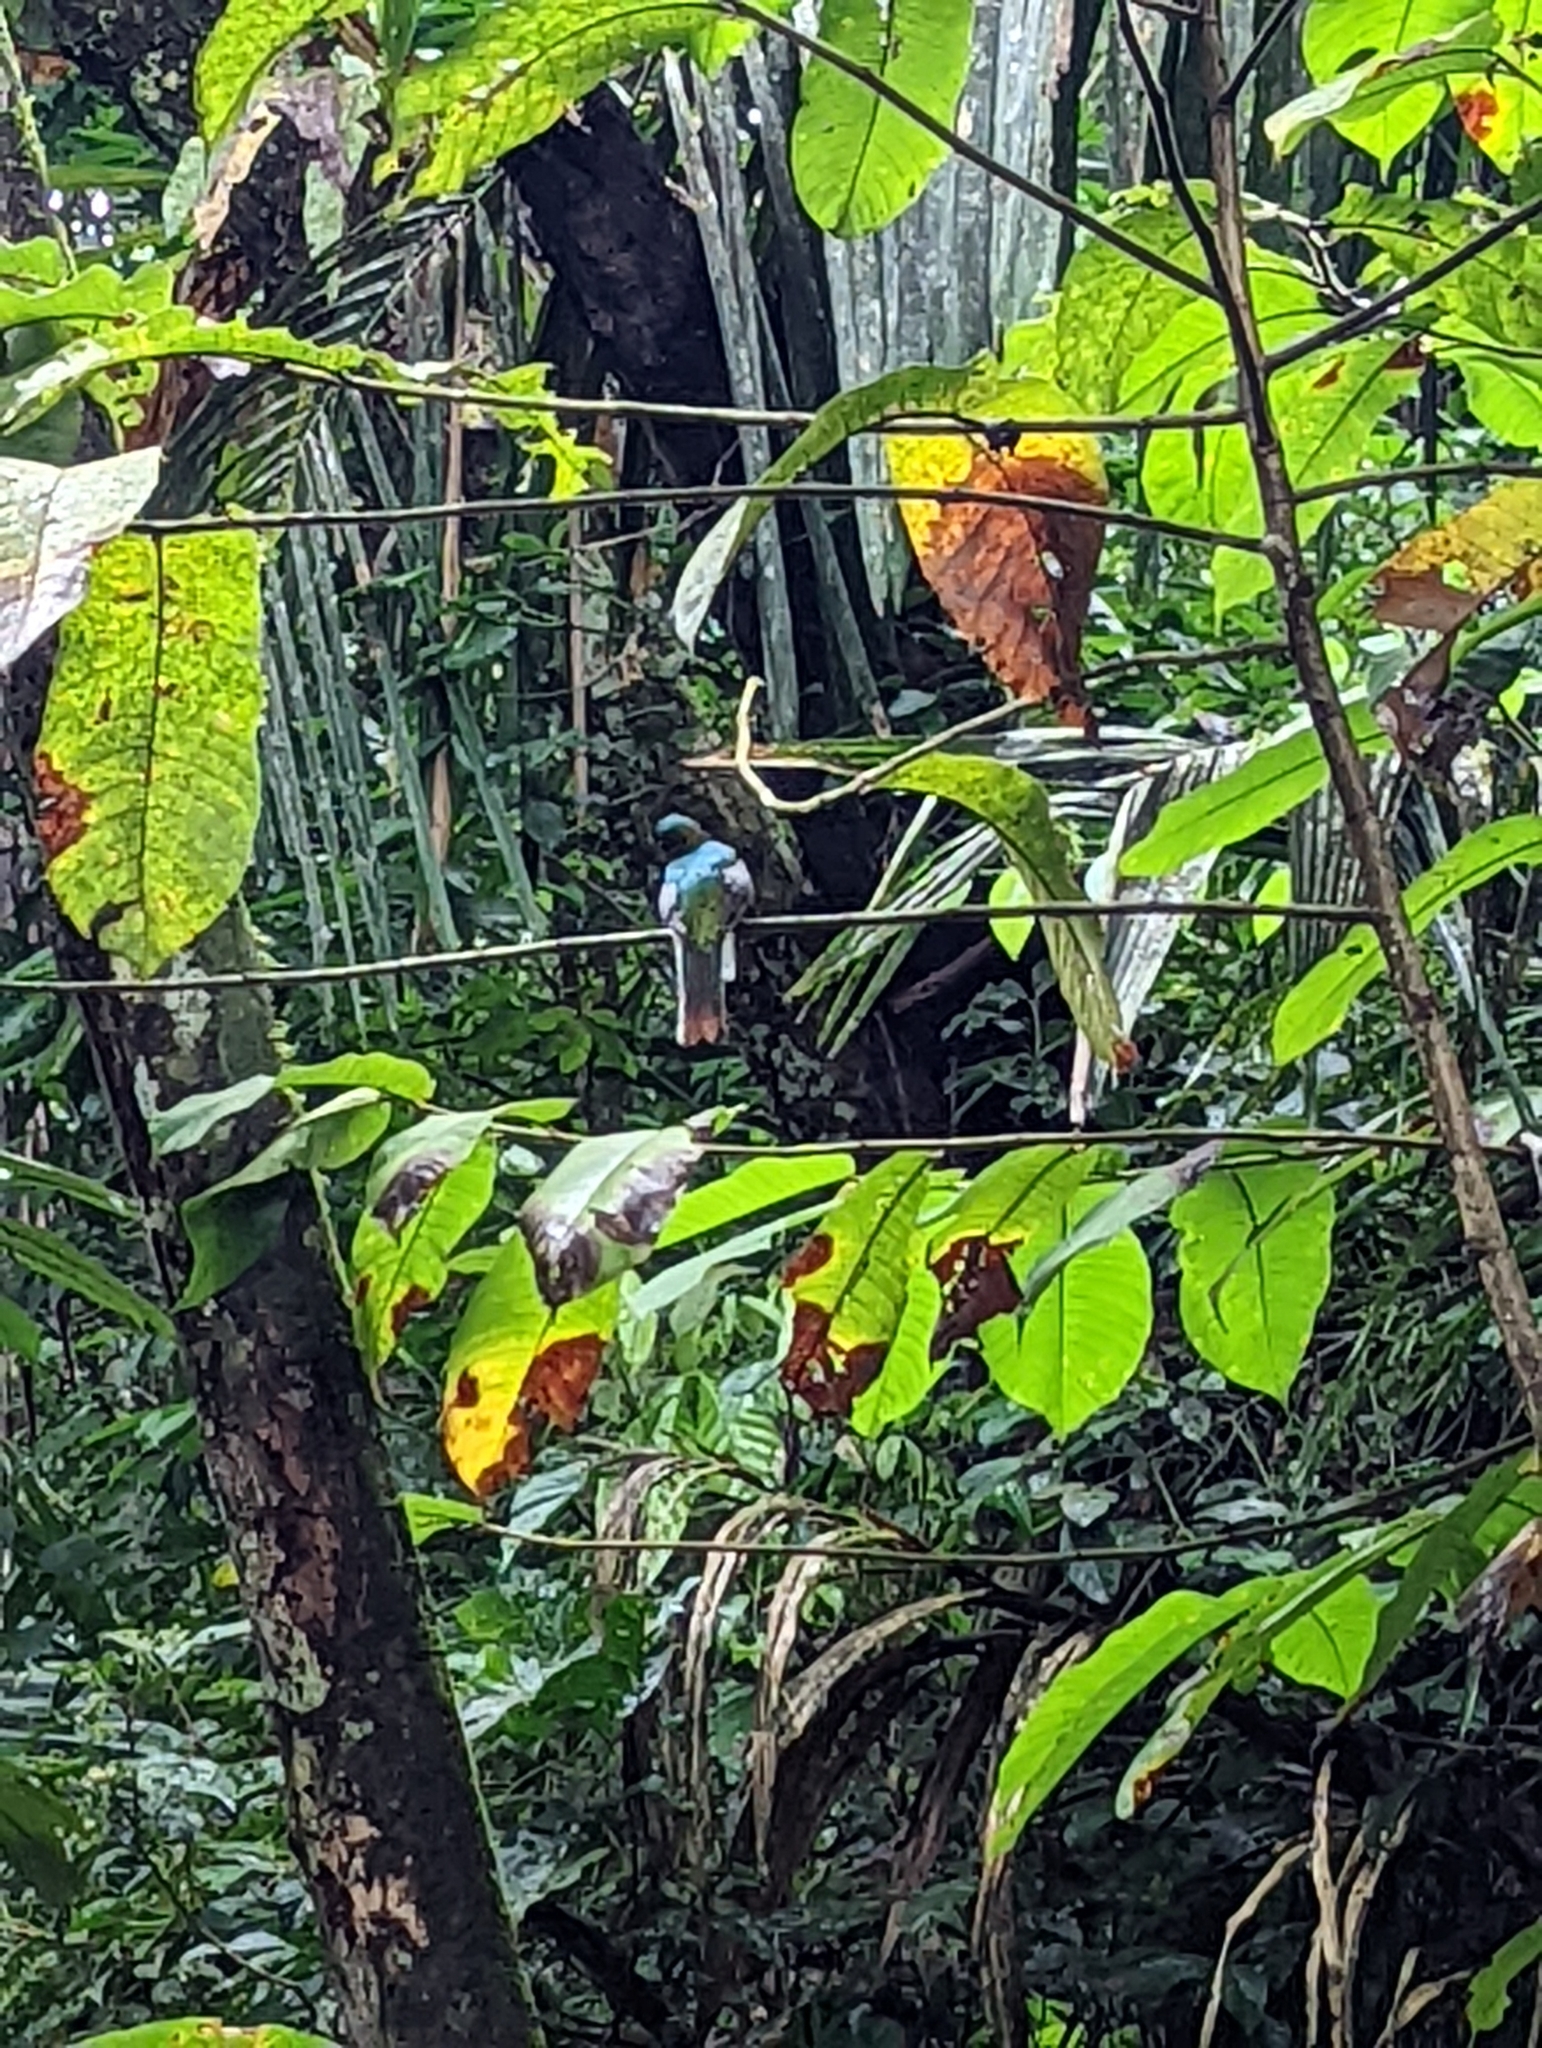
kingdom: Animalia
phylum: Chordata
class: Aves
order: Trogoniformes
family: Trogonidae
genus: Trogon
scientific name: Trogon rufus
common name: Black-throated trogon
